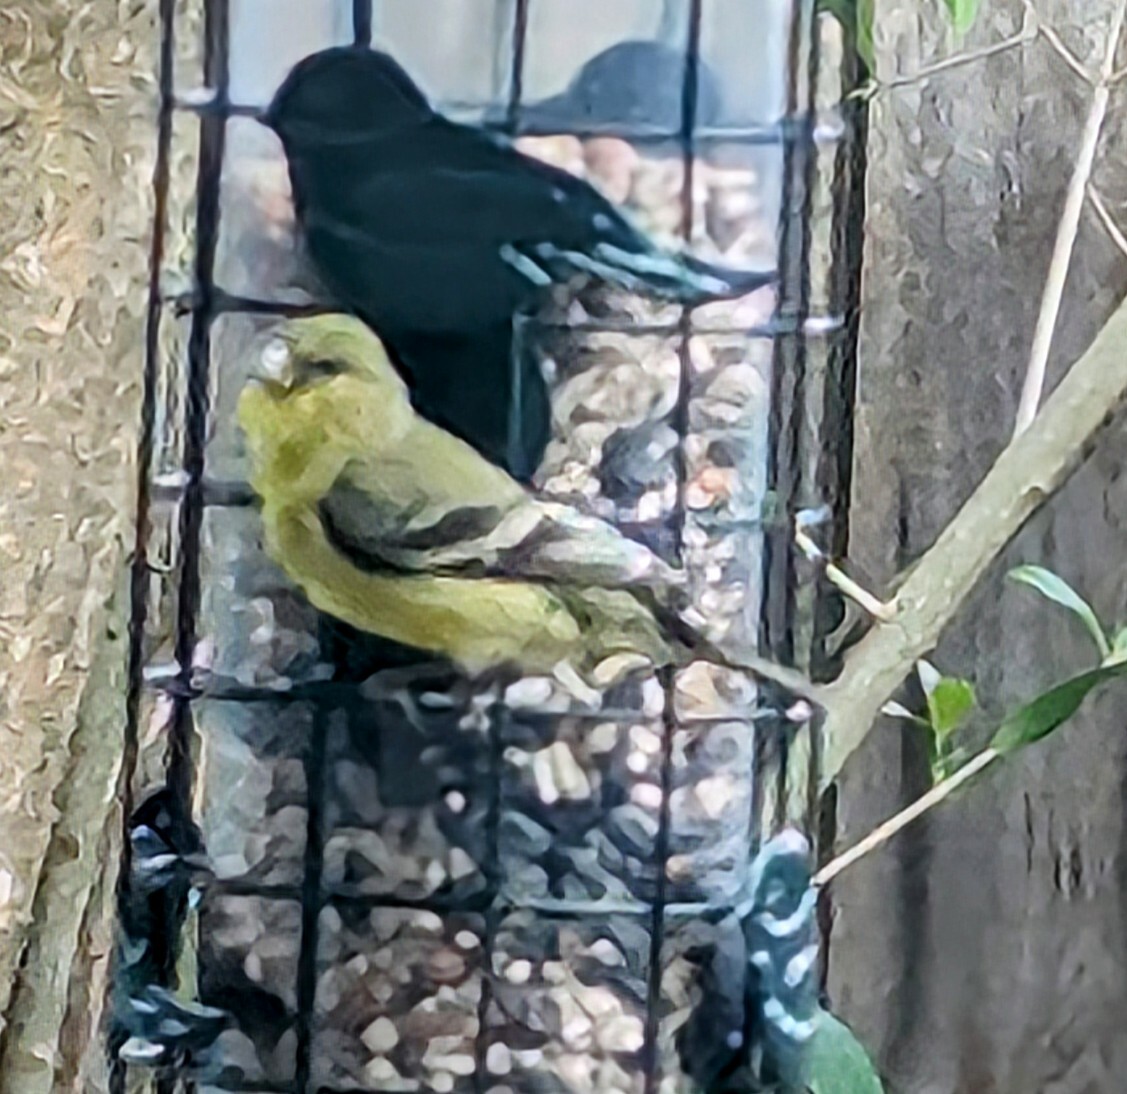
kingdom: Animalia
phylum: Chordata
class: Aves
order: Passeriformes
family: Fringillidae
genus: Spinus
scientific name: Spinus psaltria
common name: Lesser goldfinch
